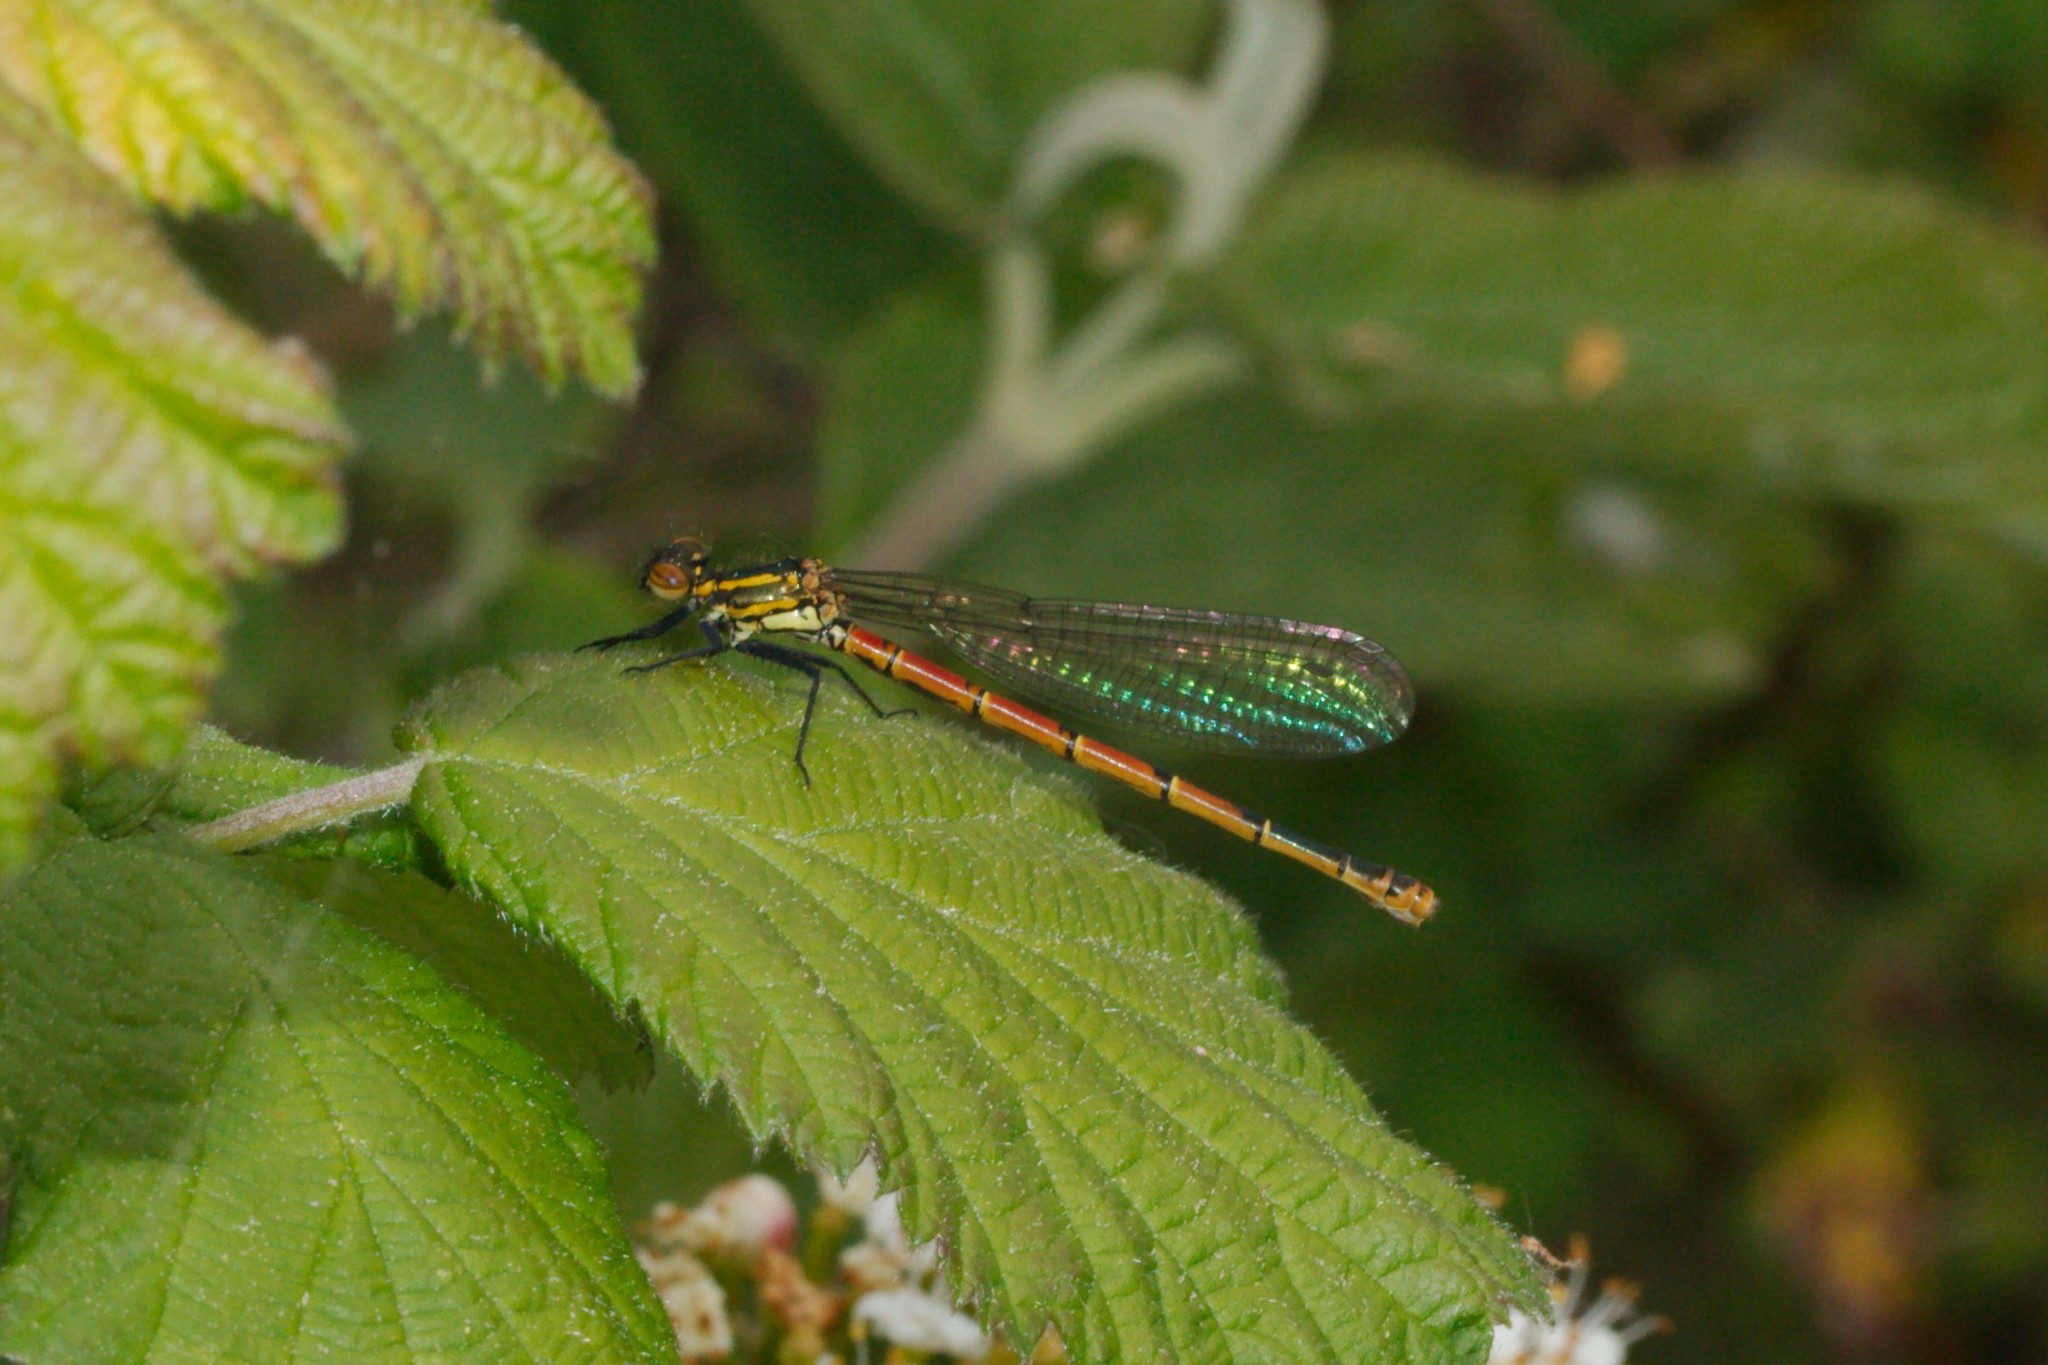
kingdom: Animalia
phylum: Arthropoda
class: Insecta
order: Odonata
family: Coenagrionidae
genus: Pyrrhosoma
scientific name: Pyrrhosoma nymphula
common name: Large red damsel
